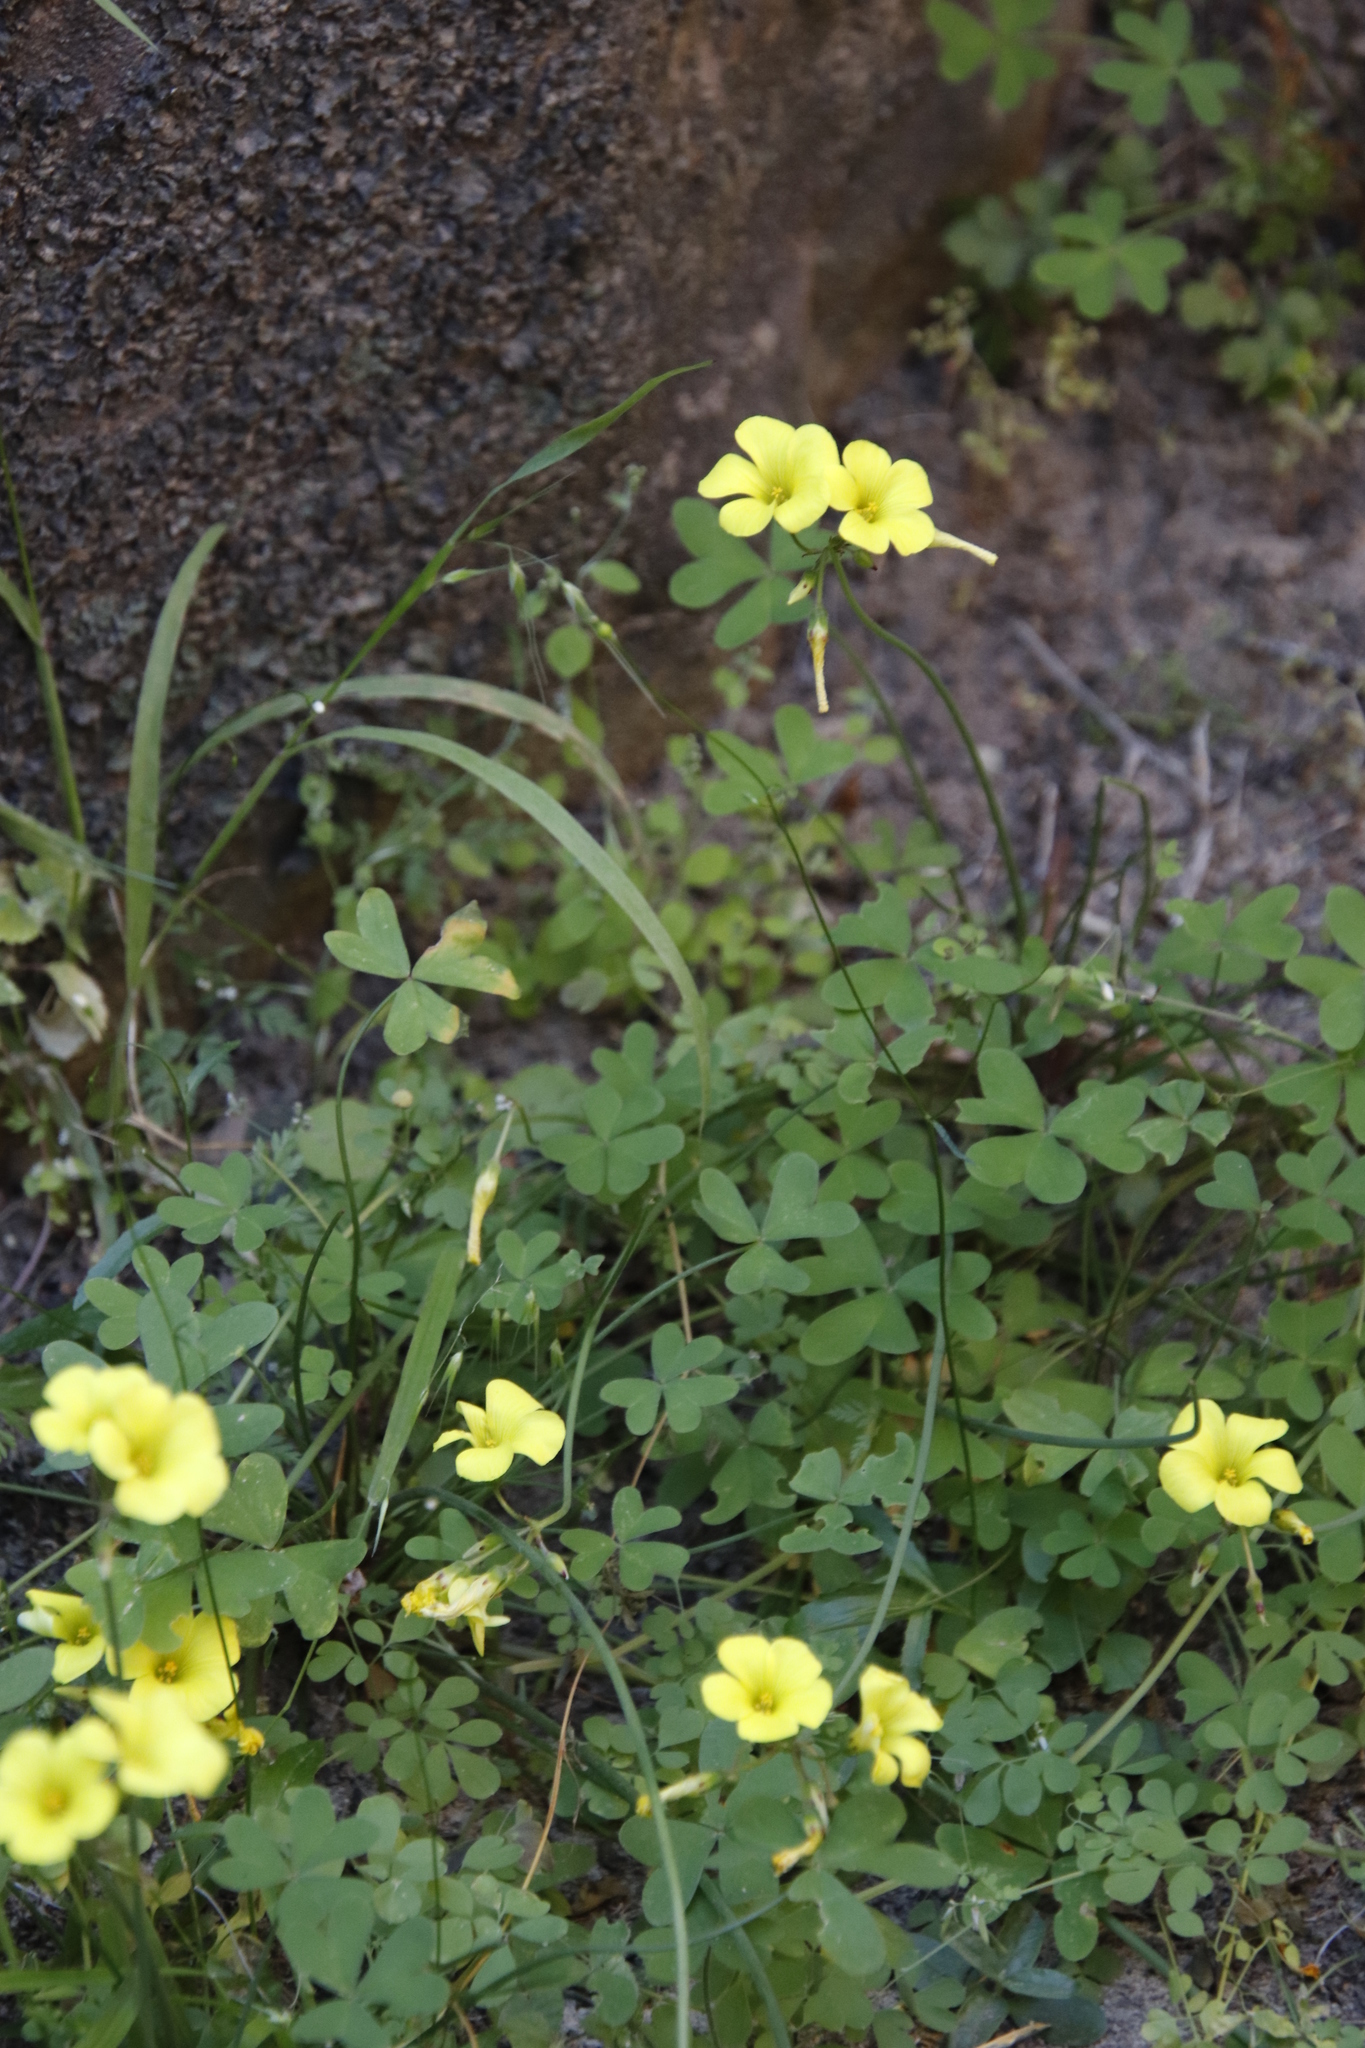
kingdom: Plantae
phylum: Tracheophyta
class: Magnoliopsida
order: Oxalidales
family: Oxalidaceae
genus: Oxalis
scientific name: Oxalis pes-caprae
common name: Bermuda-buttercup
